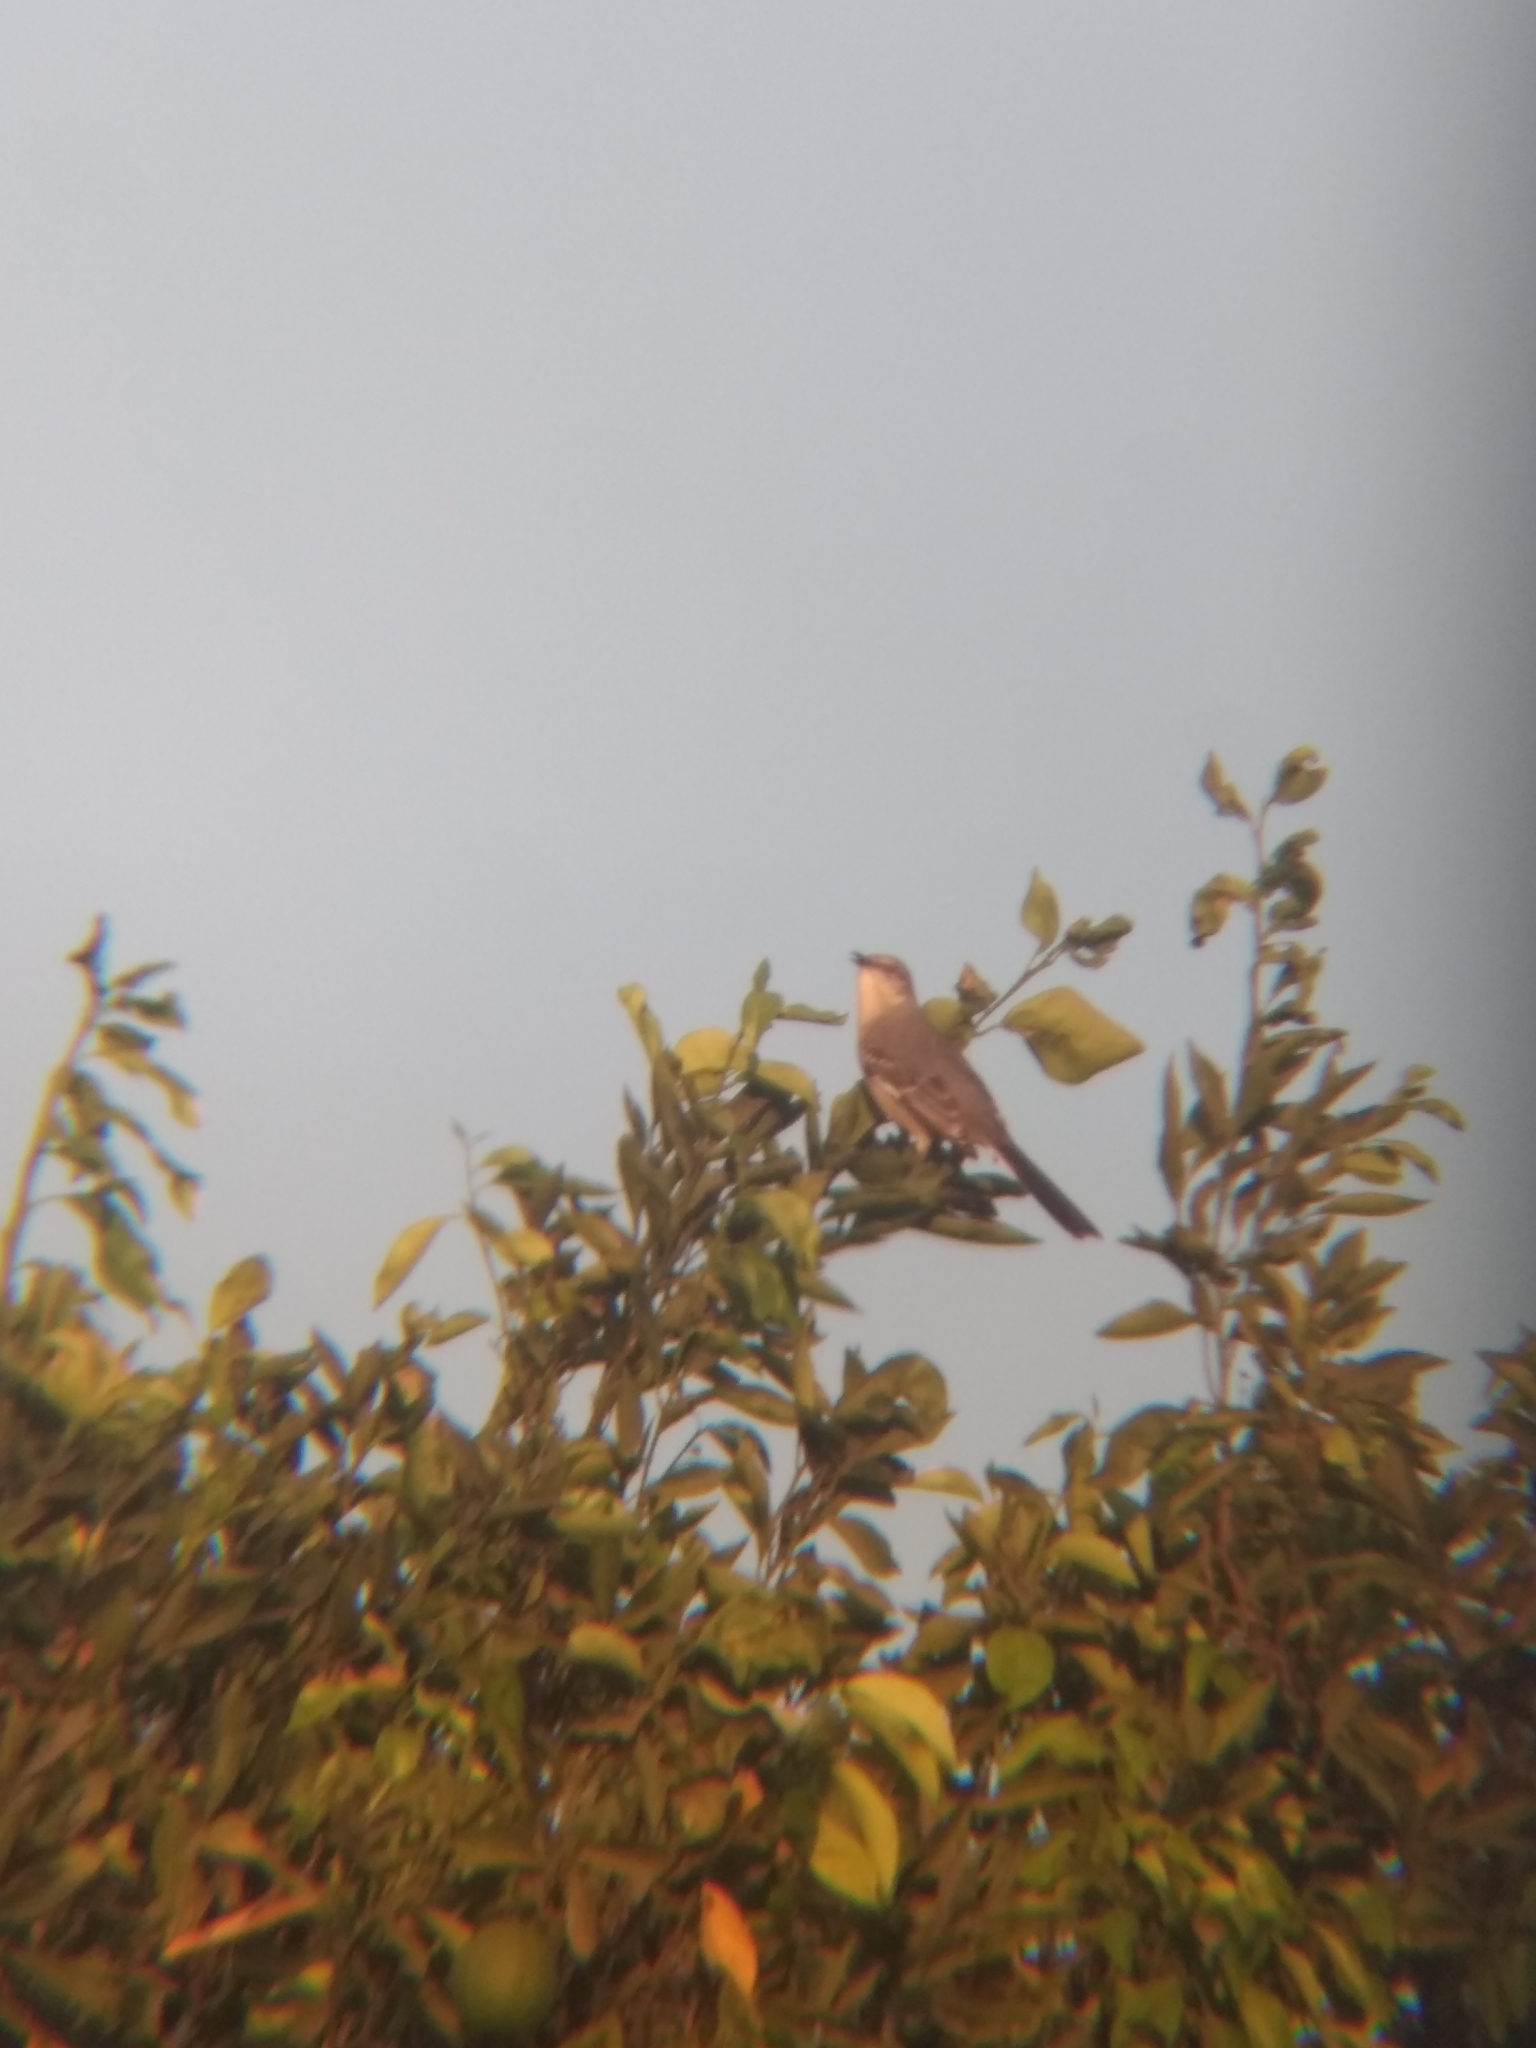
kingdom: Animalia
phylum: Chordata
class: Aves
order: Passeriformes
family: Mimidae
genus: Mimus
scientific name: Mimus polyglottos
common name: Northern mockingbird
